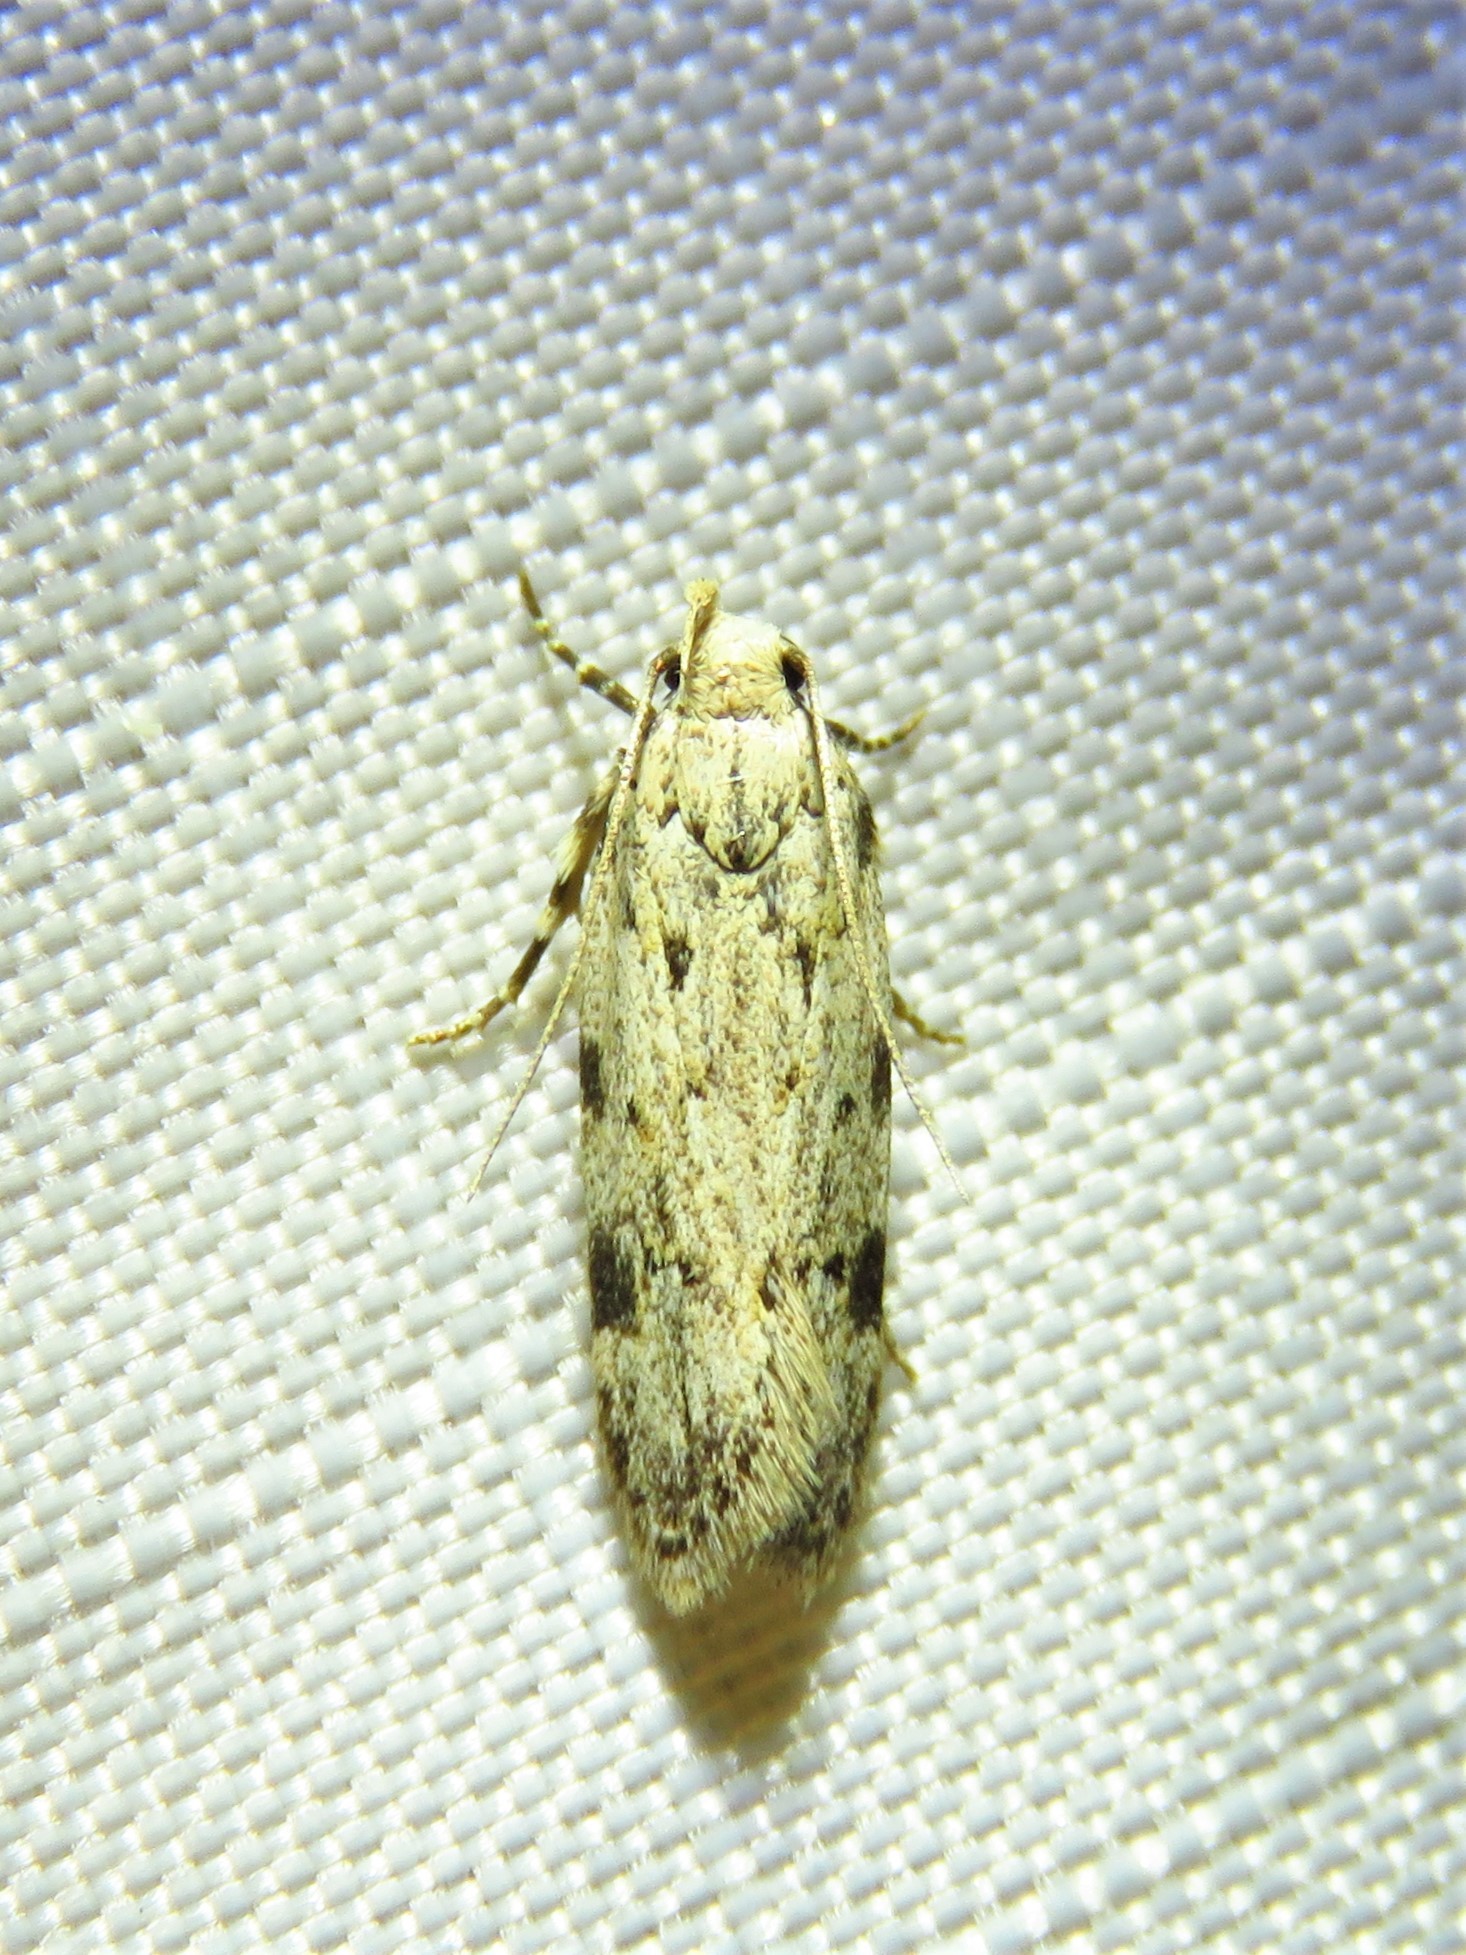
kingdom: Animalia
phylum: Arthropoda
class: Insecta
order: Lepidoptera
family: Gelechiidae
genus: Friseria
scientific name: Friseria cockerelli
